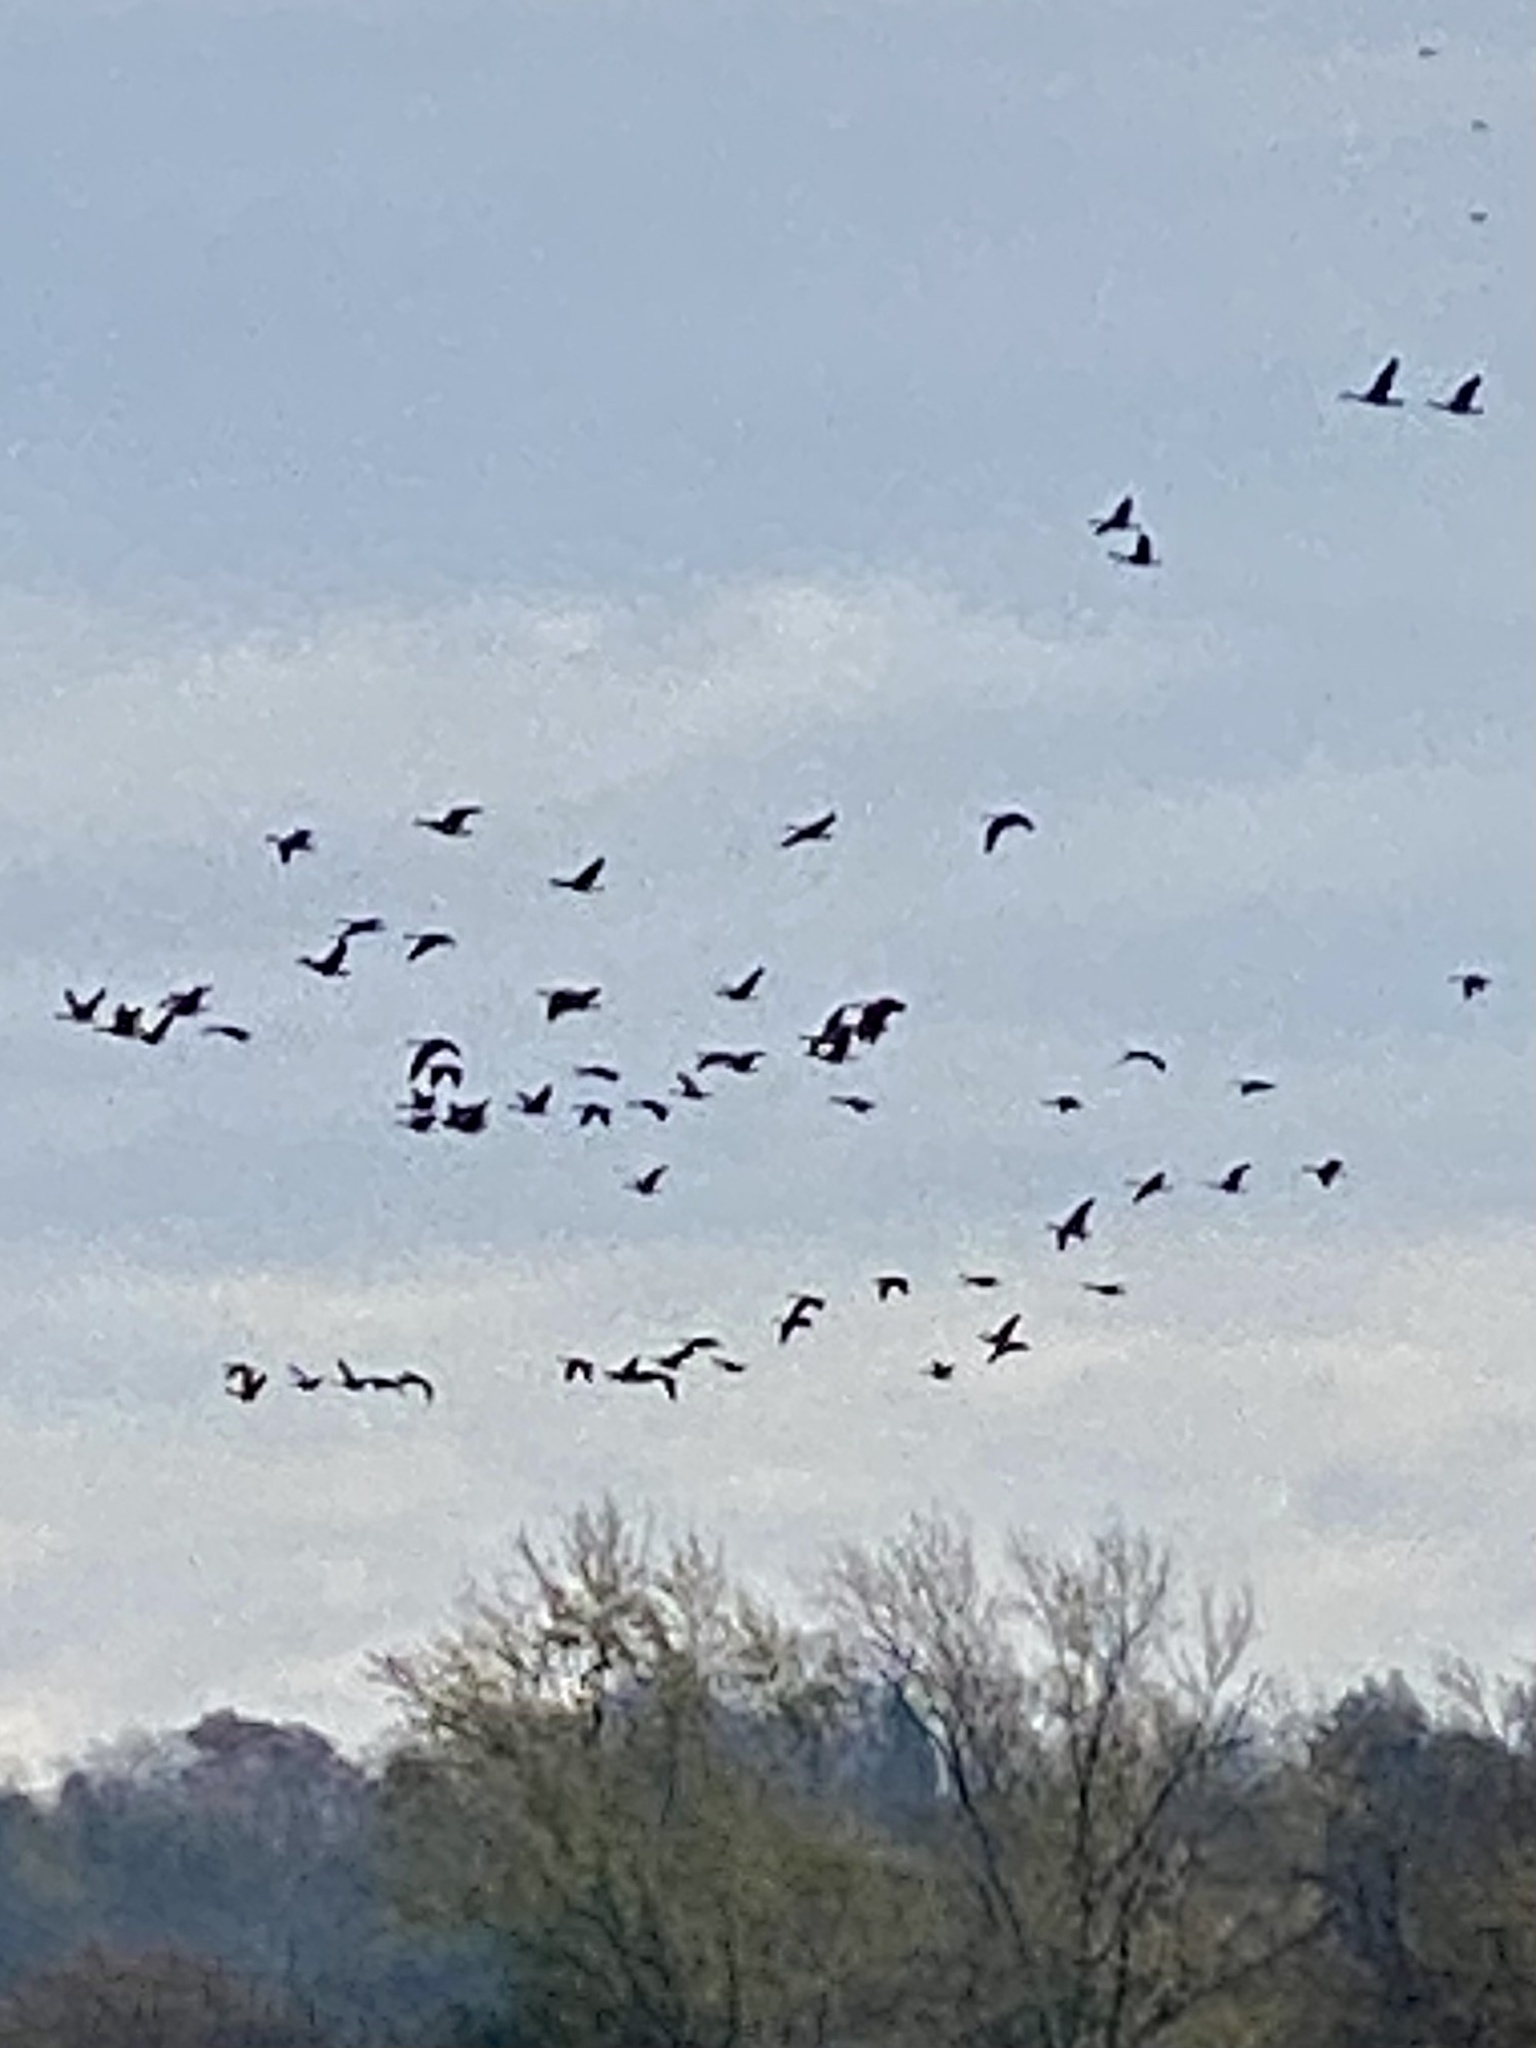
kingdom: Animalia
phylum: Chordata
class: Aves
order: Anseriformes
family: Anatidae
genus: Branta
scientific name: Branta canadensis
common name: Canada goose
